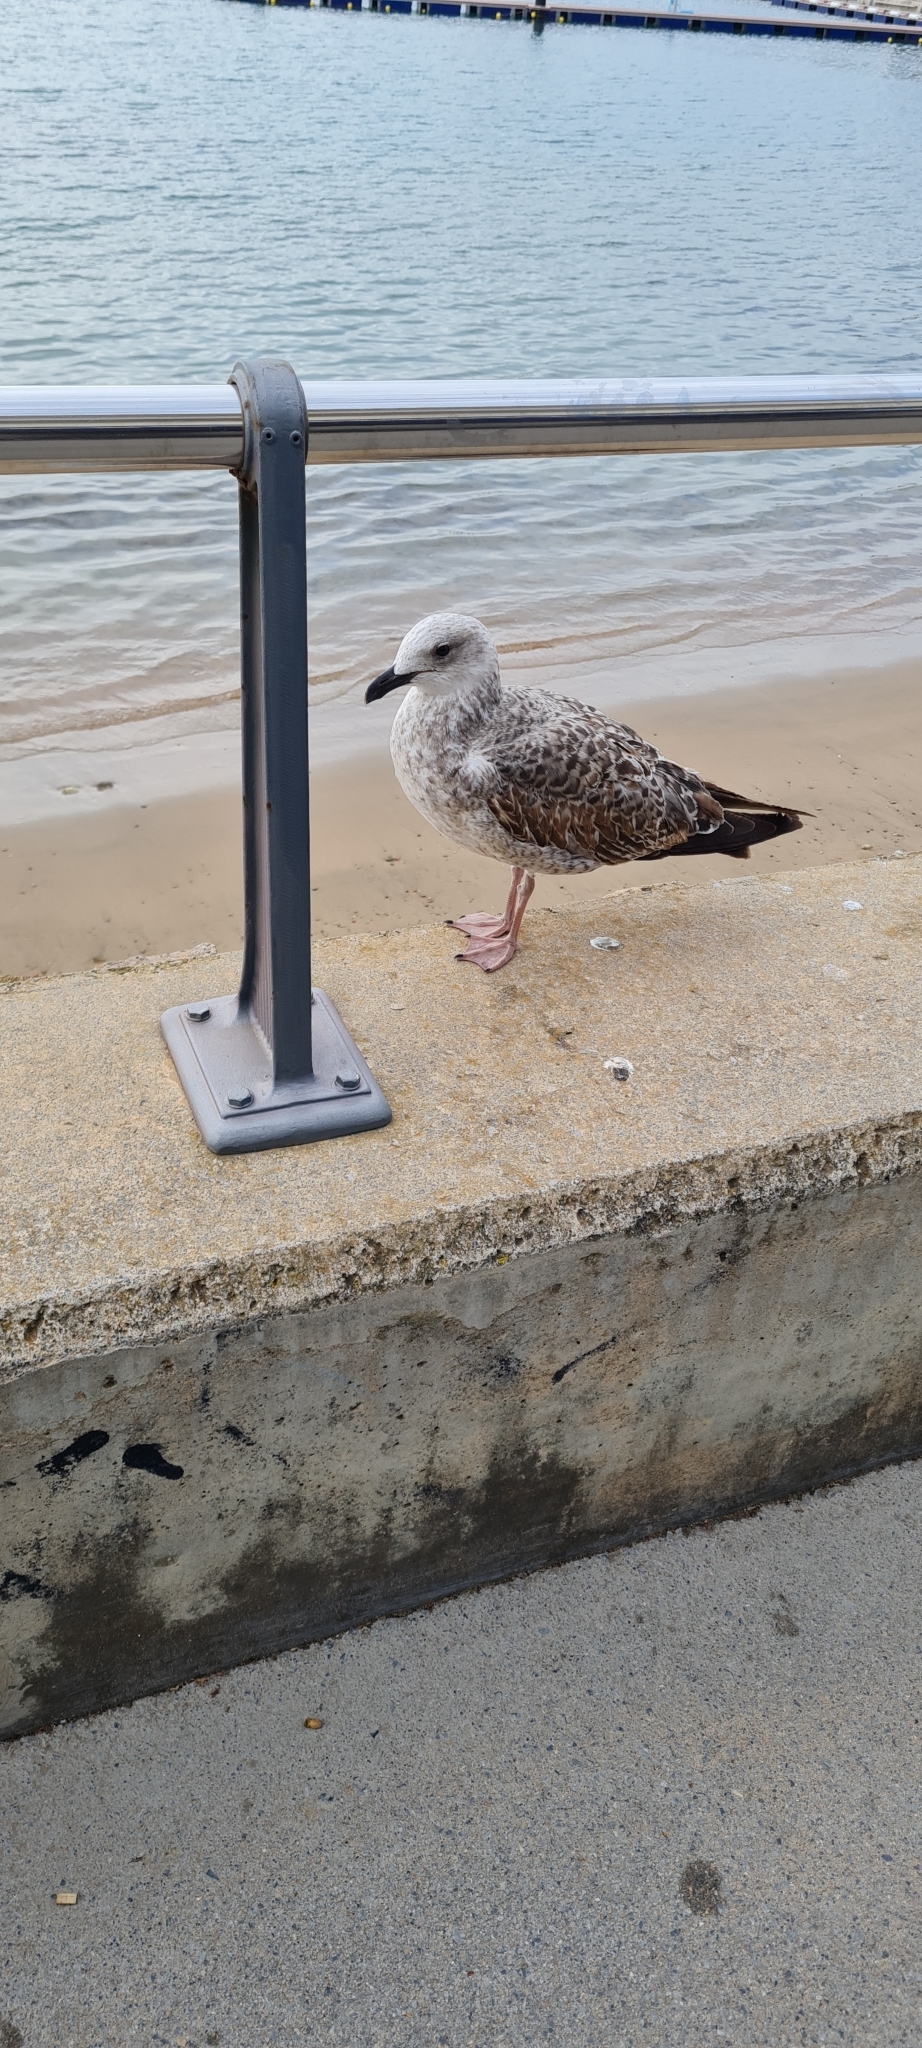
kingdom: Animalia
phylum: Chordata
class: Aves
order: Charadriiformes
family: Laridae
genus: Larus
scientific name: Larus michahellis
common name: Yellow-legged gull
